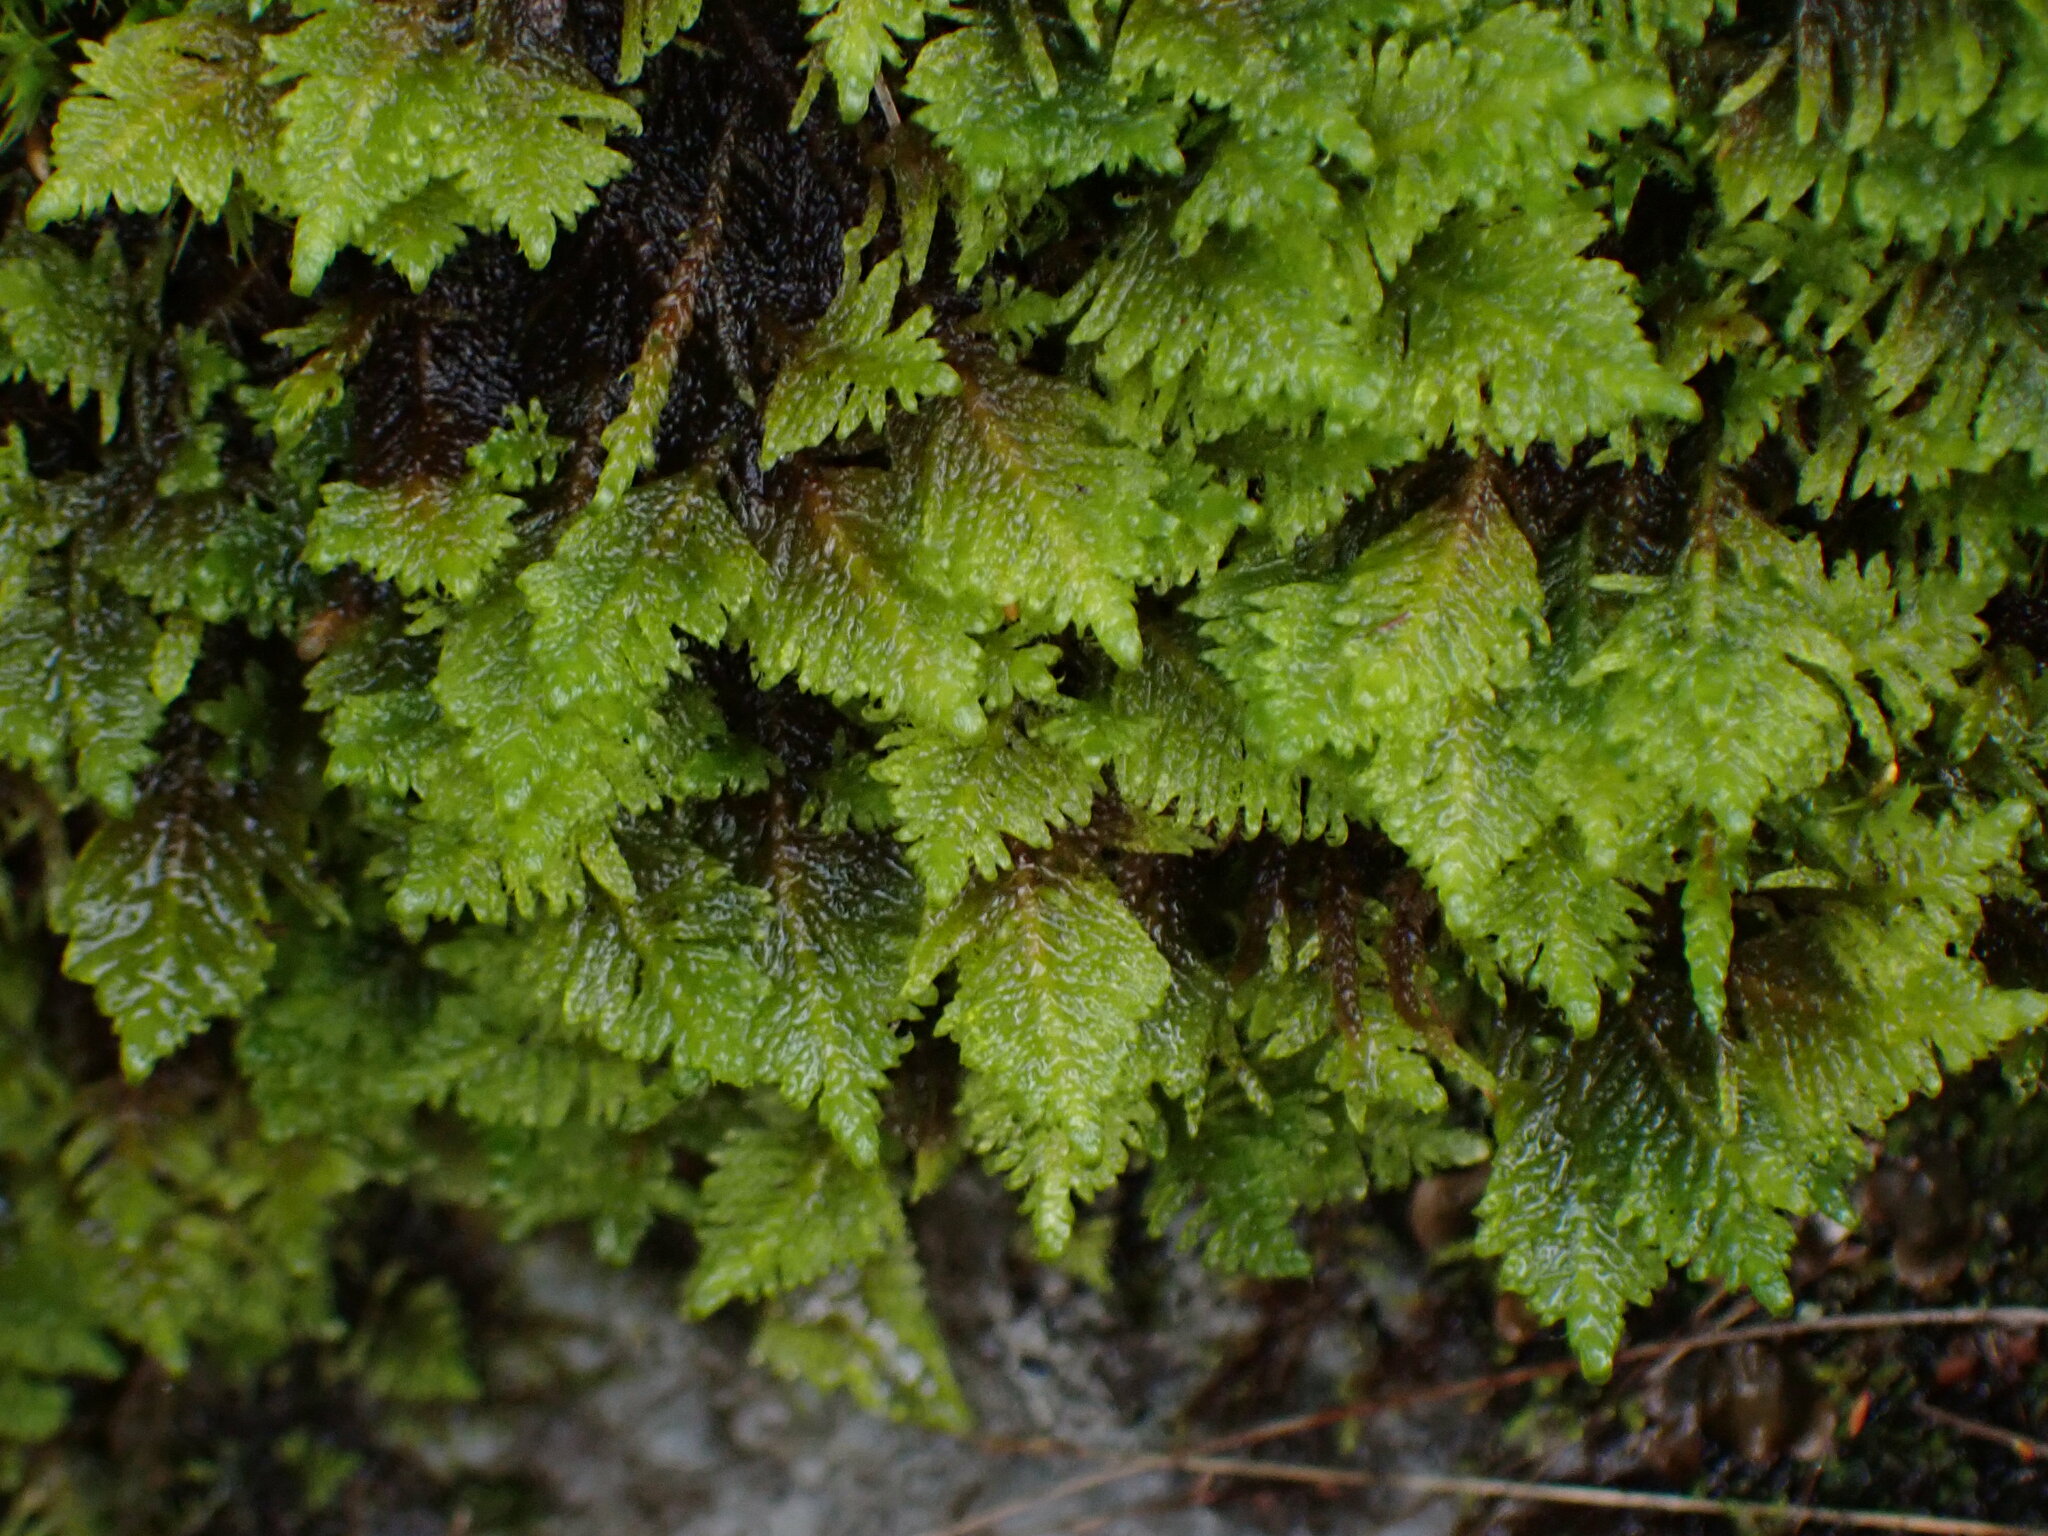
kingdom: Plantae
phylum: Bryophyta
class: Bryopsida
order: Hypnales
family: Pylaisiaceae
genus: Ptilium
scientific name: Ptilium crista-castrensis
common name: Knight's plume moss
